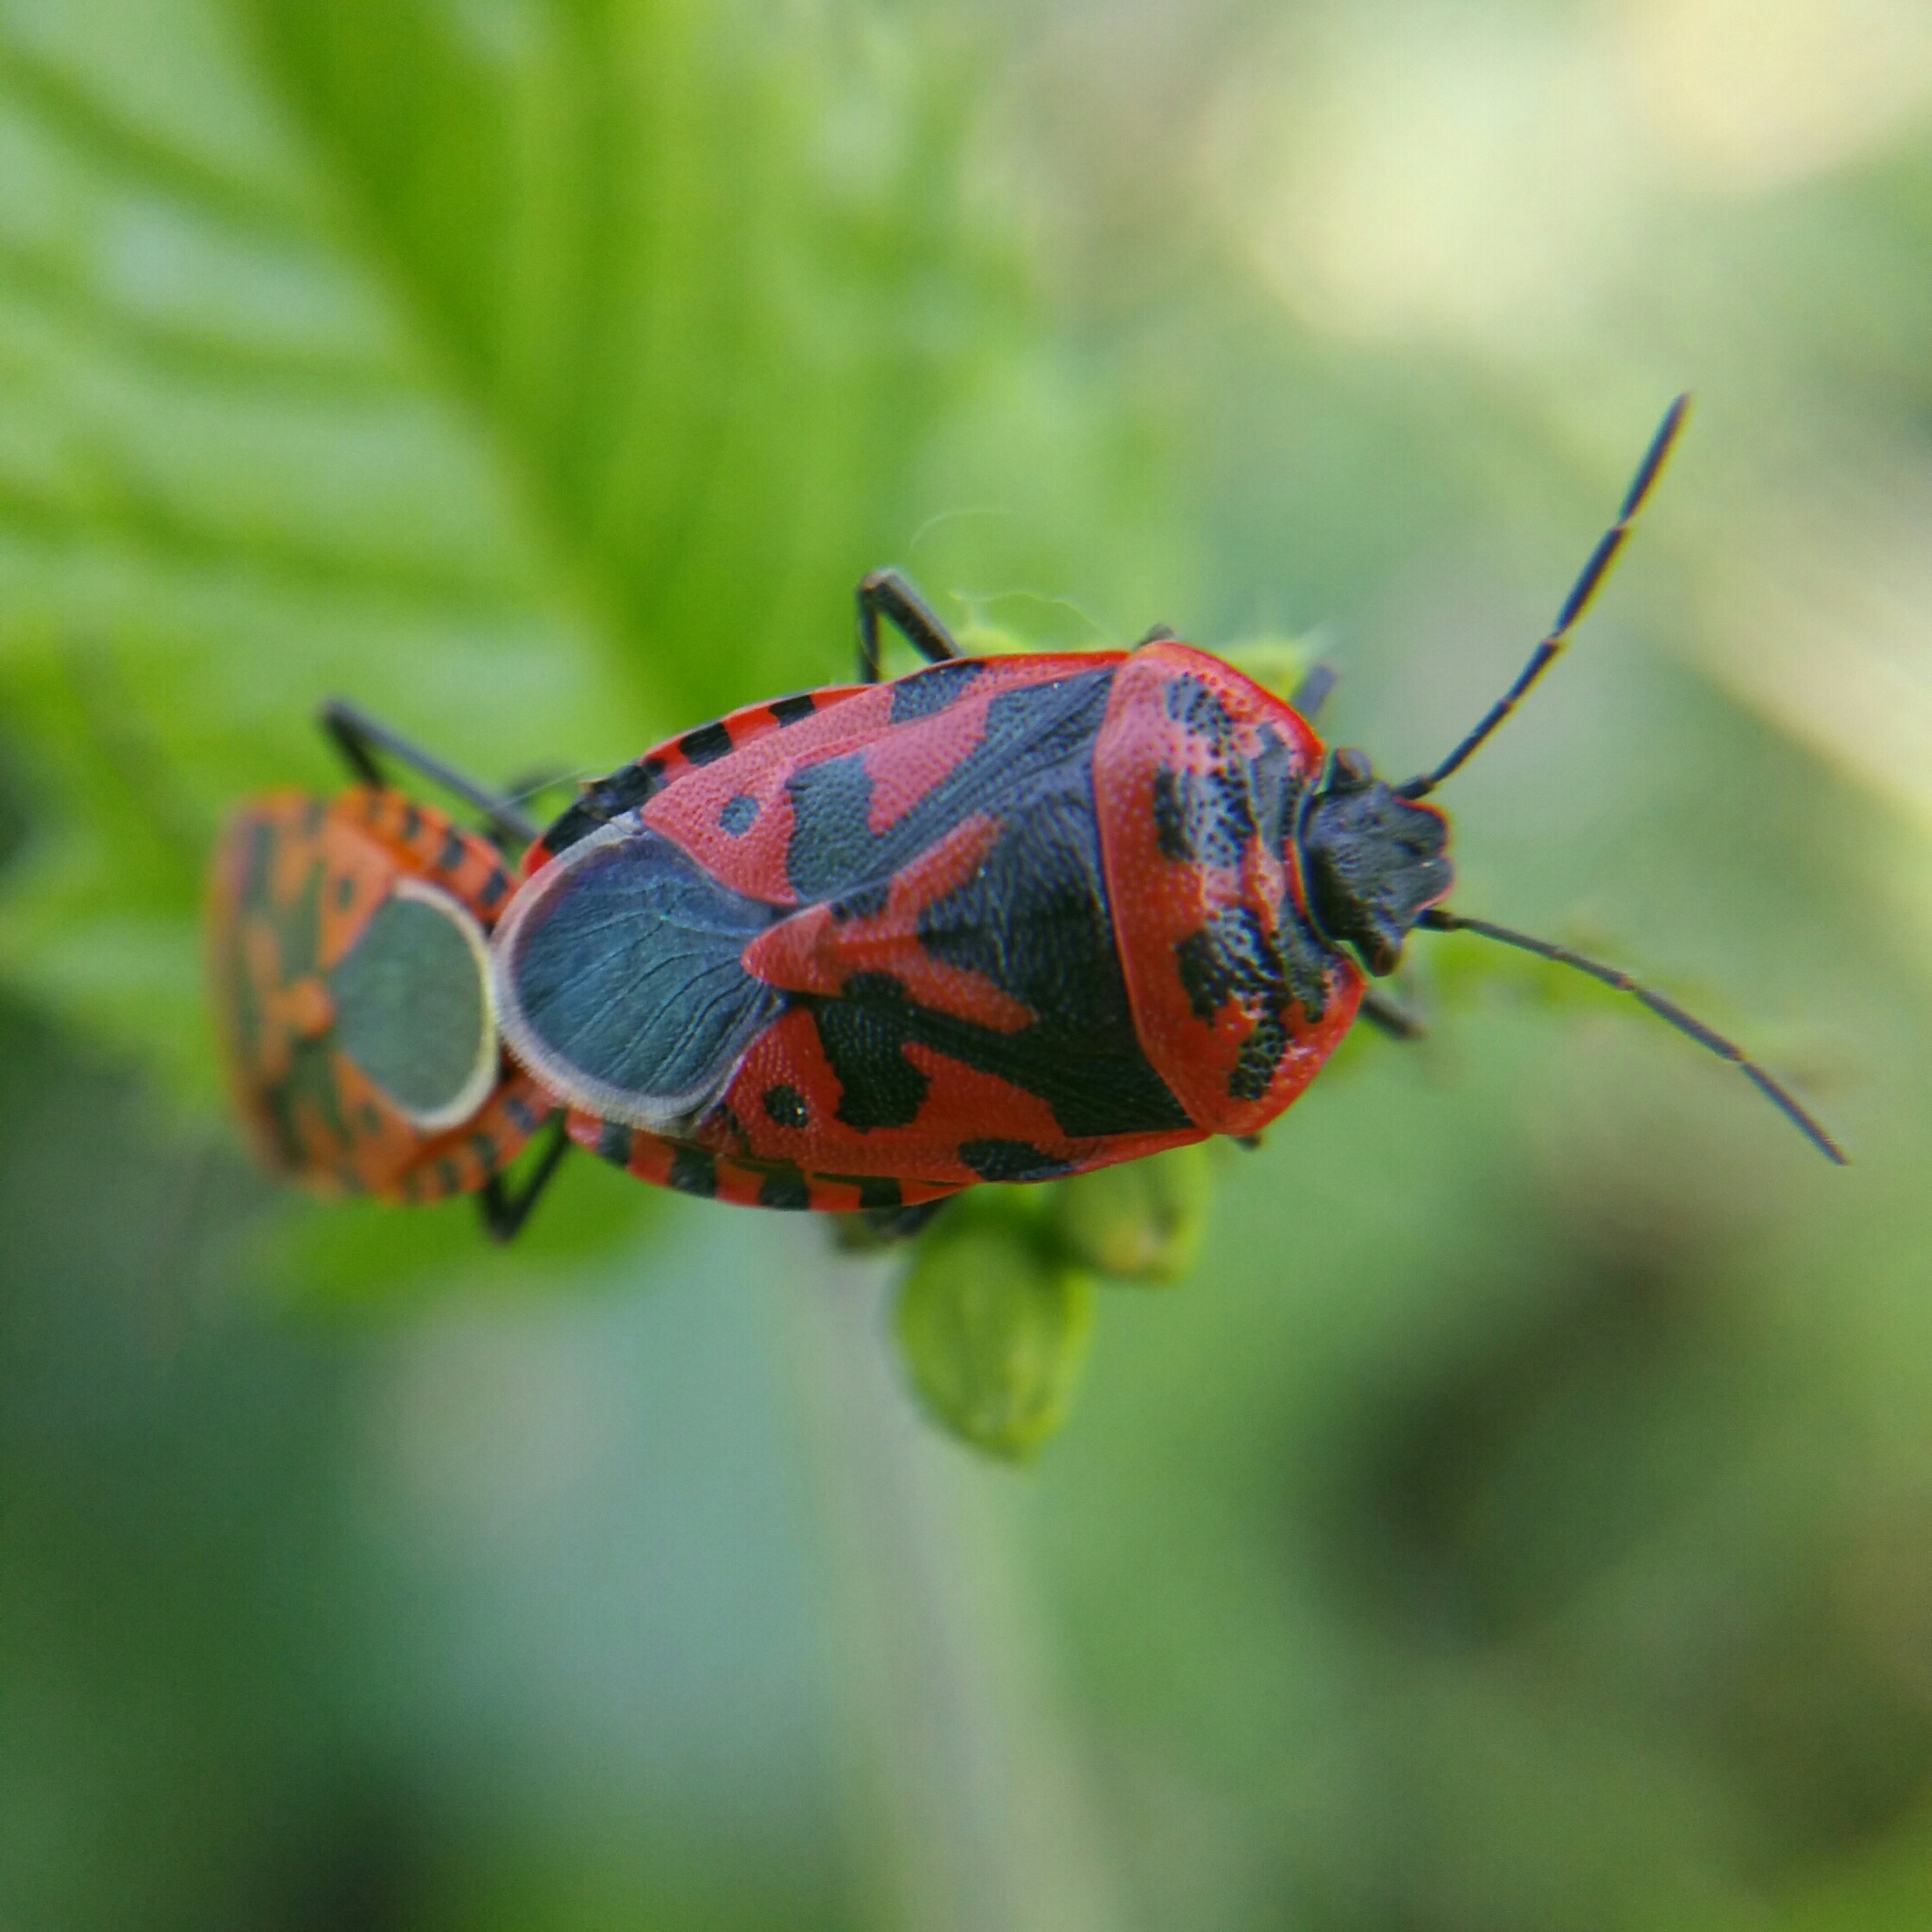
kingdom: Animalia
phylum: Arthropoda
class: Insecta
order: Hemiptera
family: Pentatomidae
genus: Eurydema
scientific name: Eurydema ventralis
